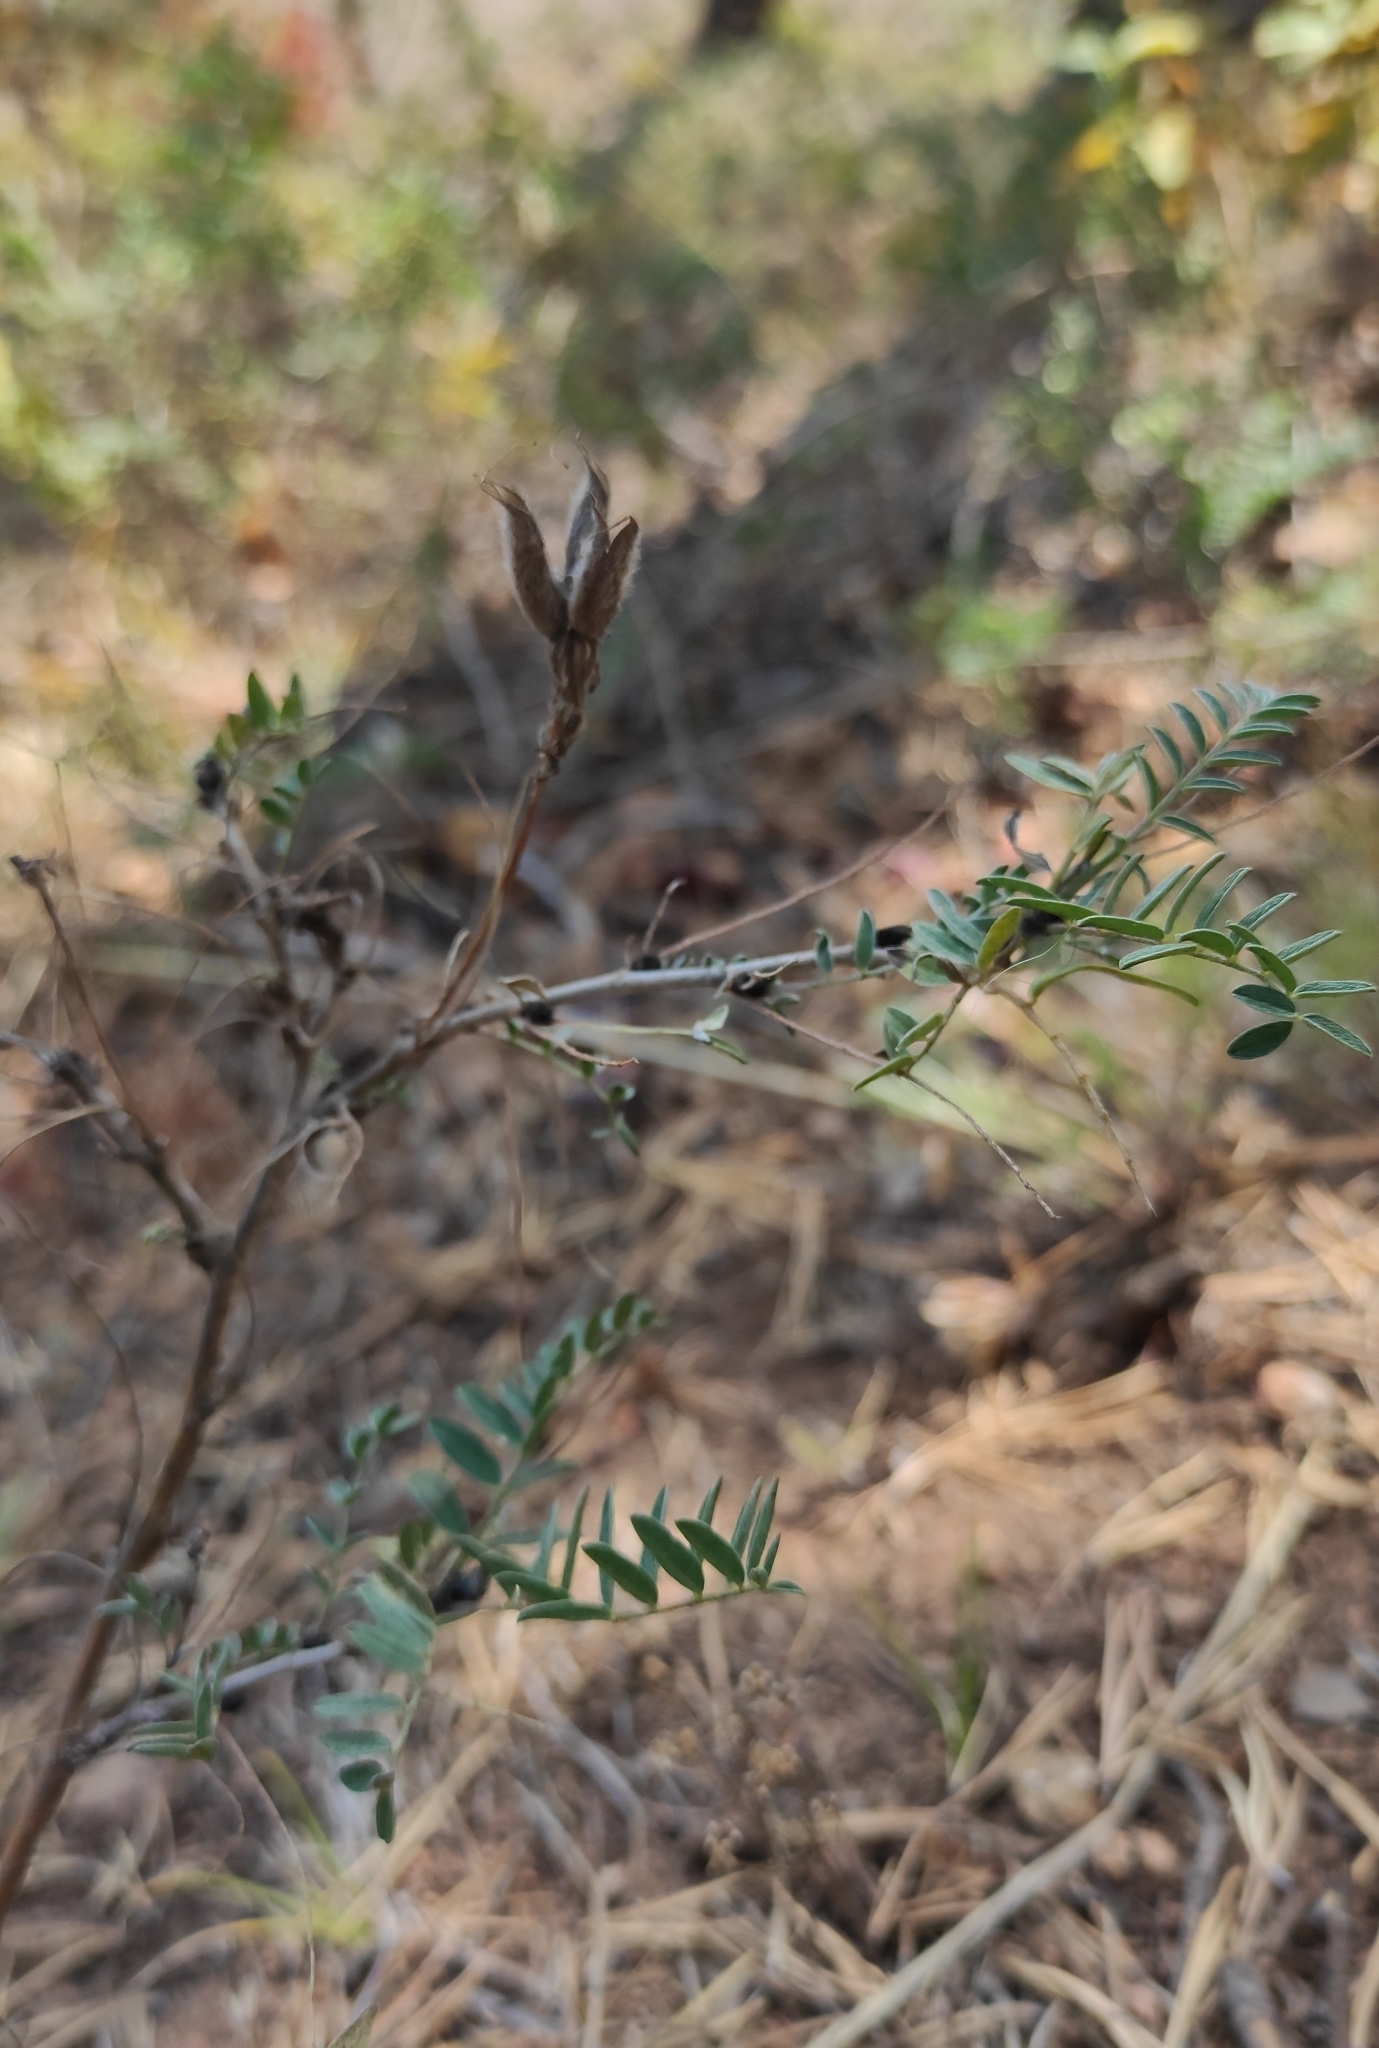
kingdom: Plantae
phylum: Tracheophyta
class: Magnoliopsida
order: Fabales
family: Fabaceae
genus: Astragalus
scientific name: Astragalus syriacus
